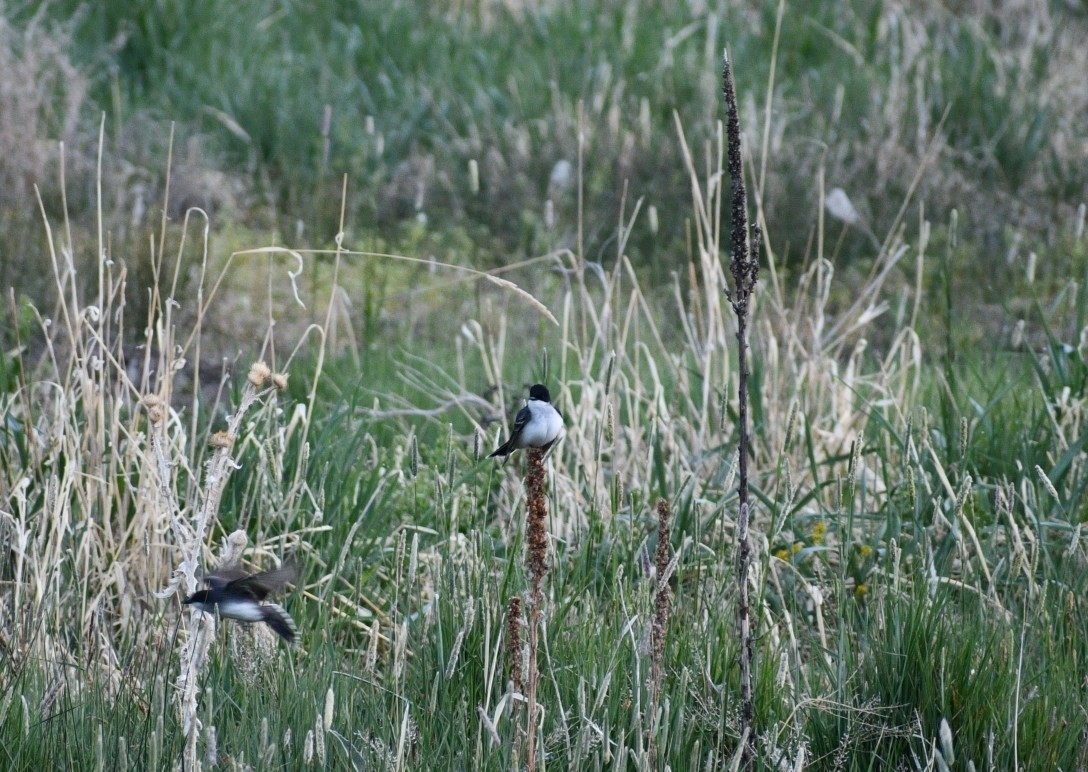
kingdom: Animalia
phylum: Chordata
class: Aves
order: Passeriformes
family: Tyrannidae
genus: Tyrannus
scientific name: Tyrannus tyrannus
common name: Eastern kingbird
